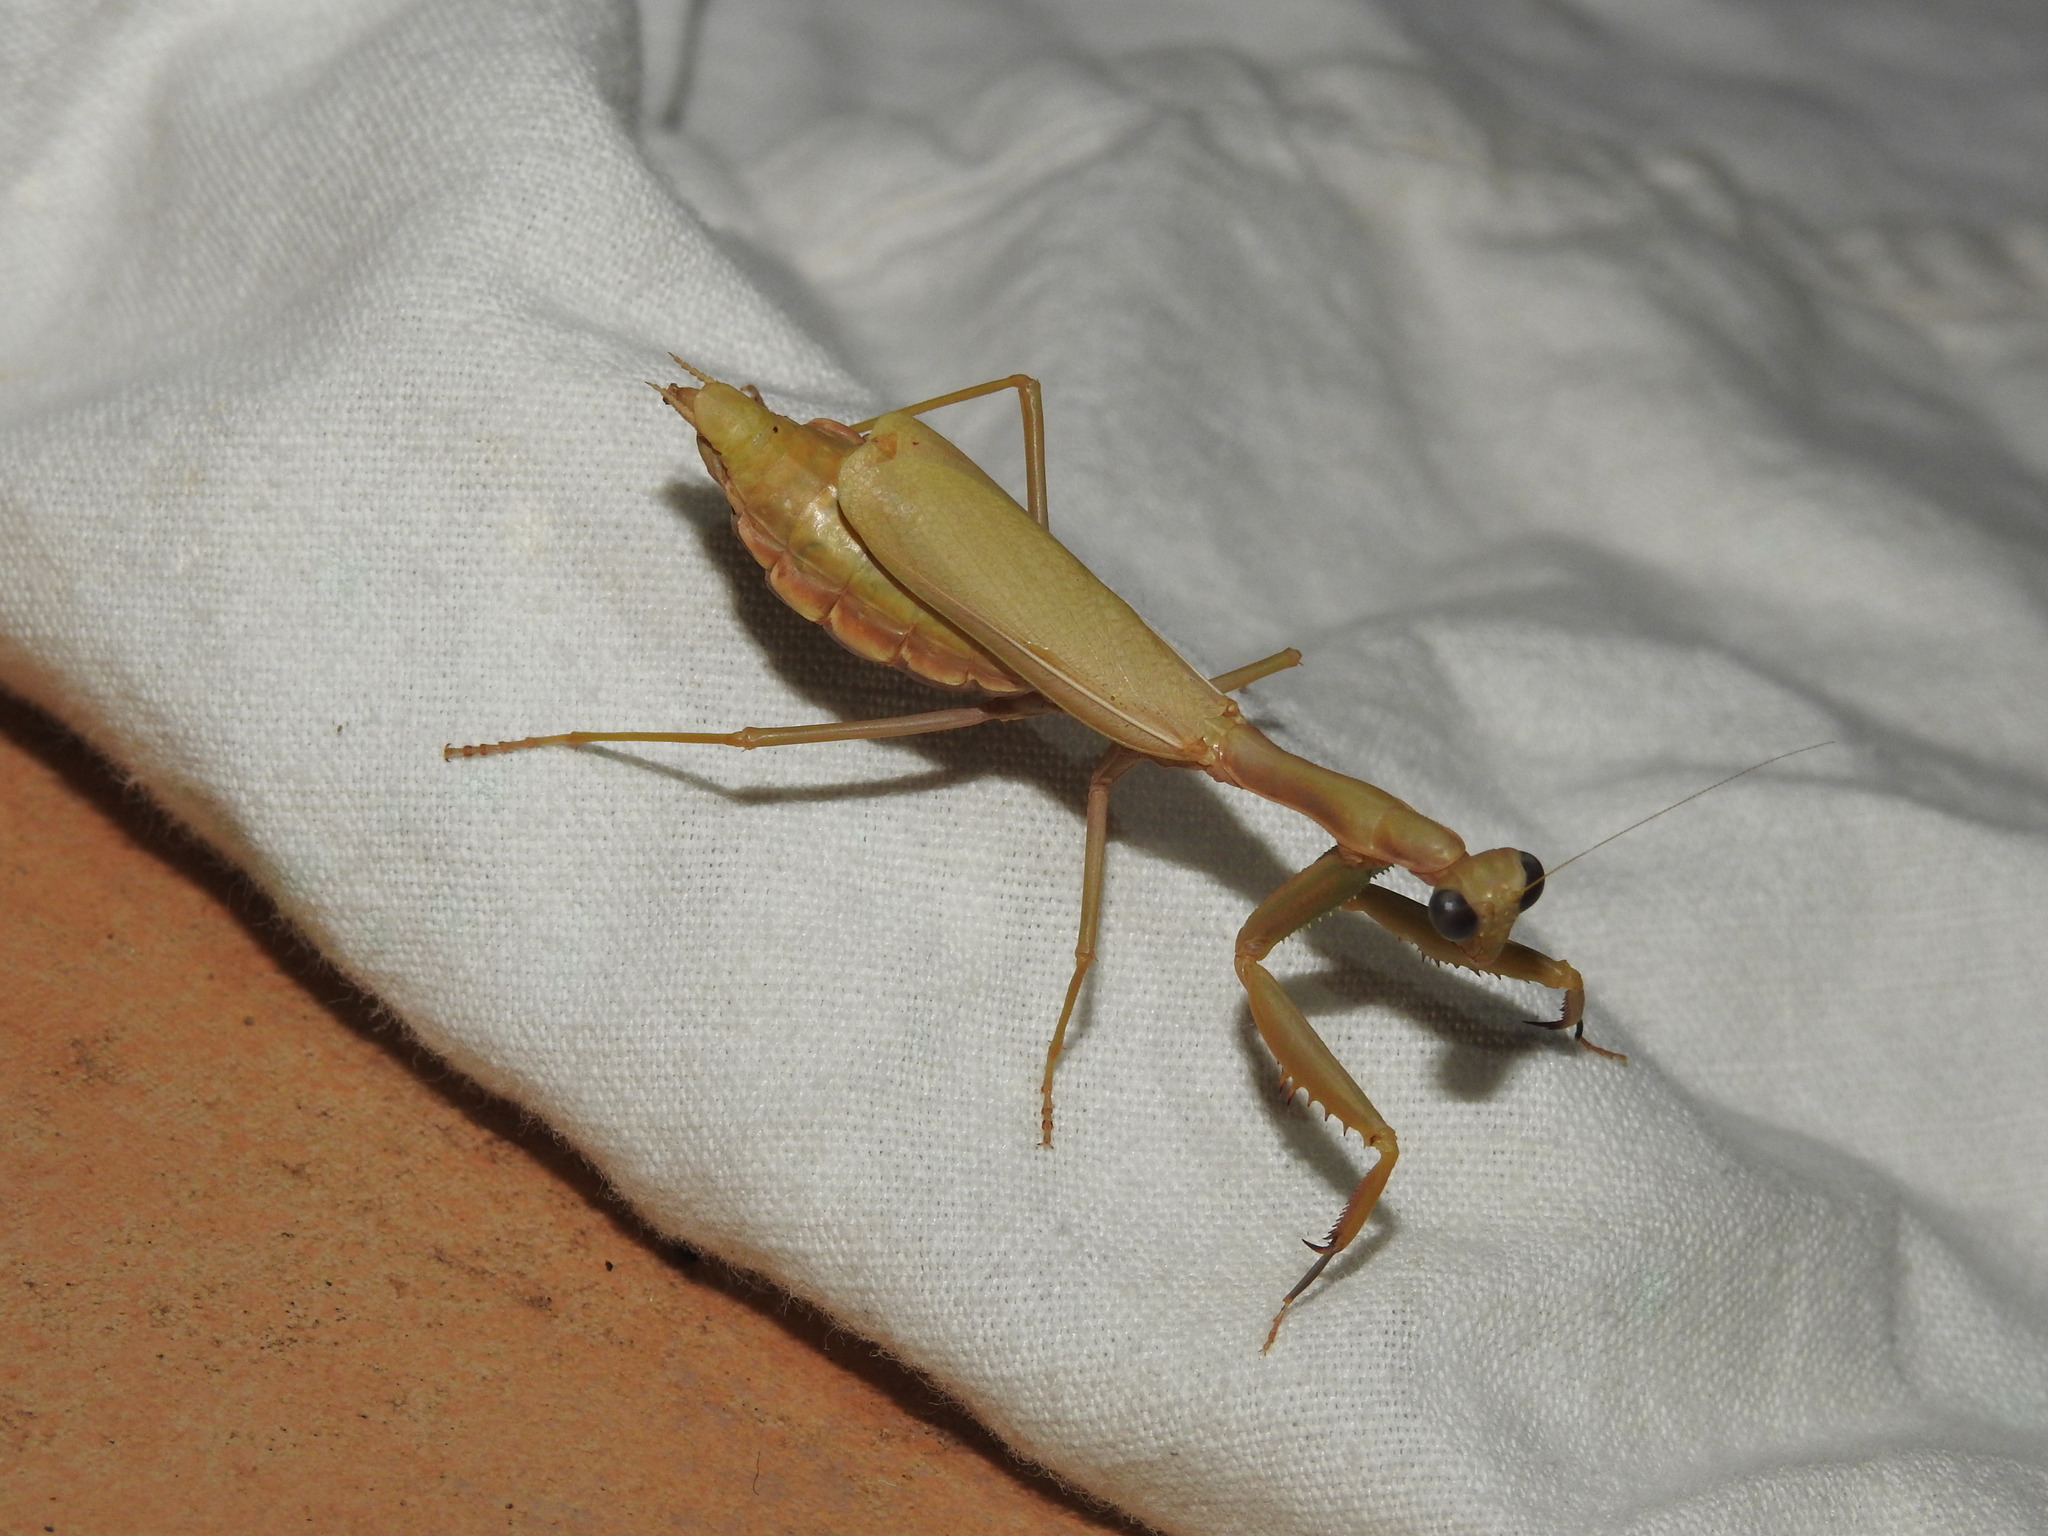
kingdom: Animalia
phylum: Arthropoda
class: Insecta
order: Mantodea
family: Eremiaphilidae
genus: Iris
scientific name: Iris oratoria
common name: Mediterranean mantis
